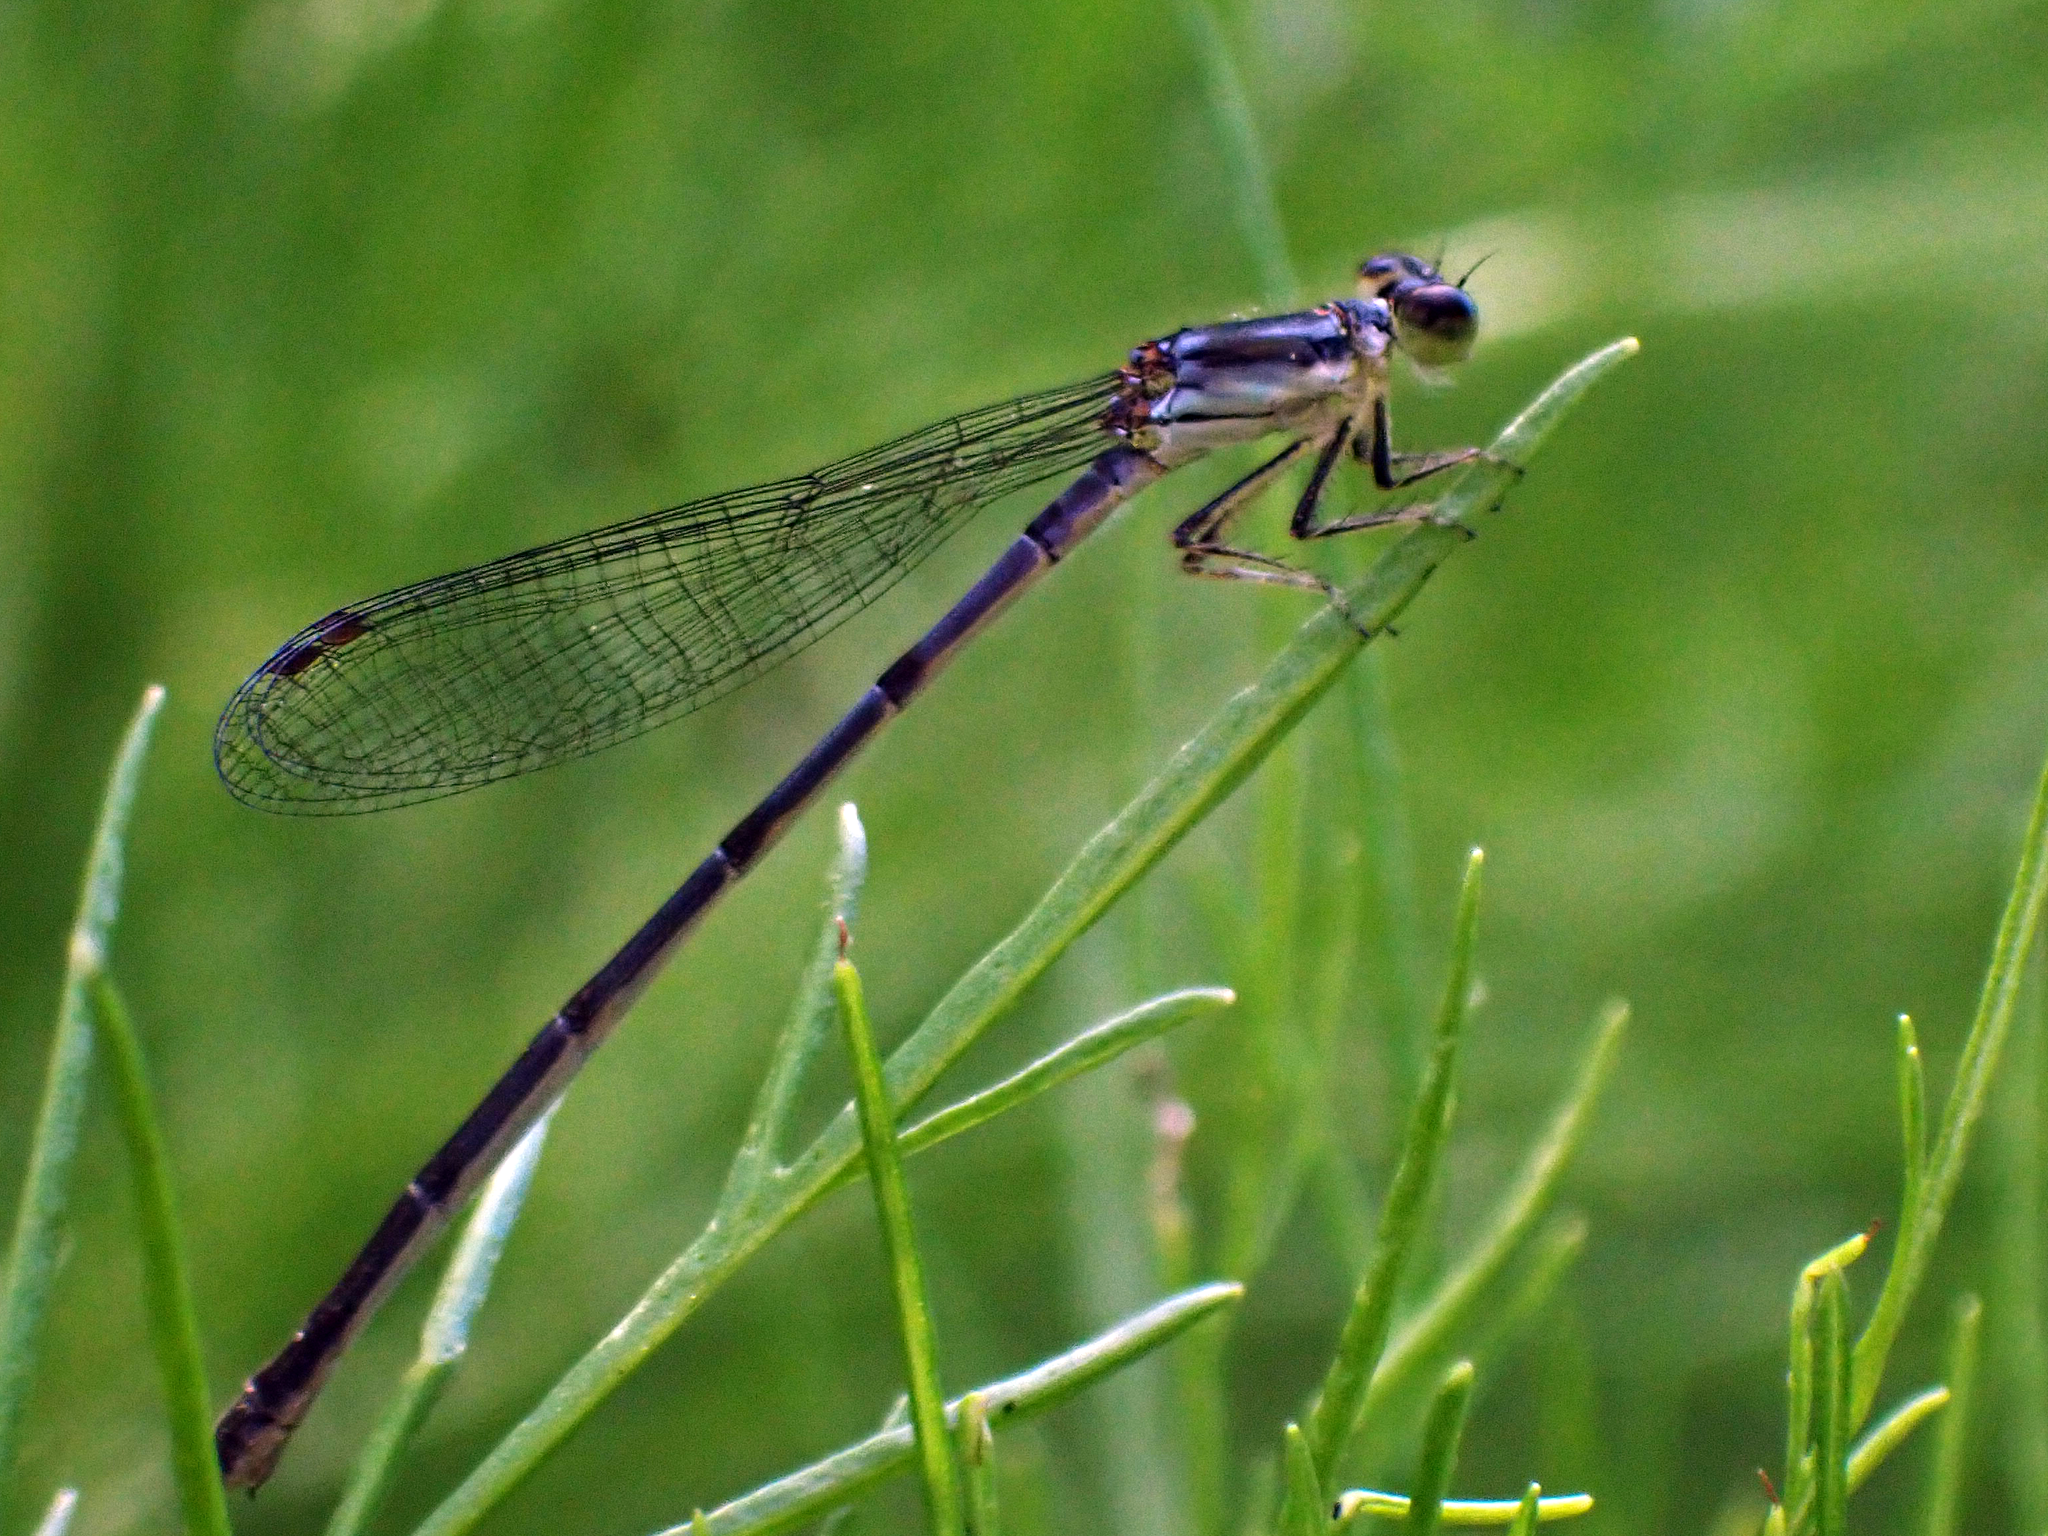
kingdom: Animalia
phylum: Arthropoda
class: Insecta
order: Odonata
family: Coenagrionidae
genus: Ischnura
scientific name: Ischnura posita
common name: Fragile forktail
